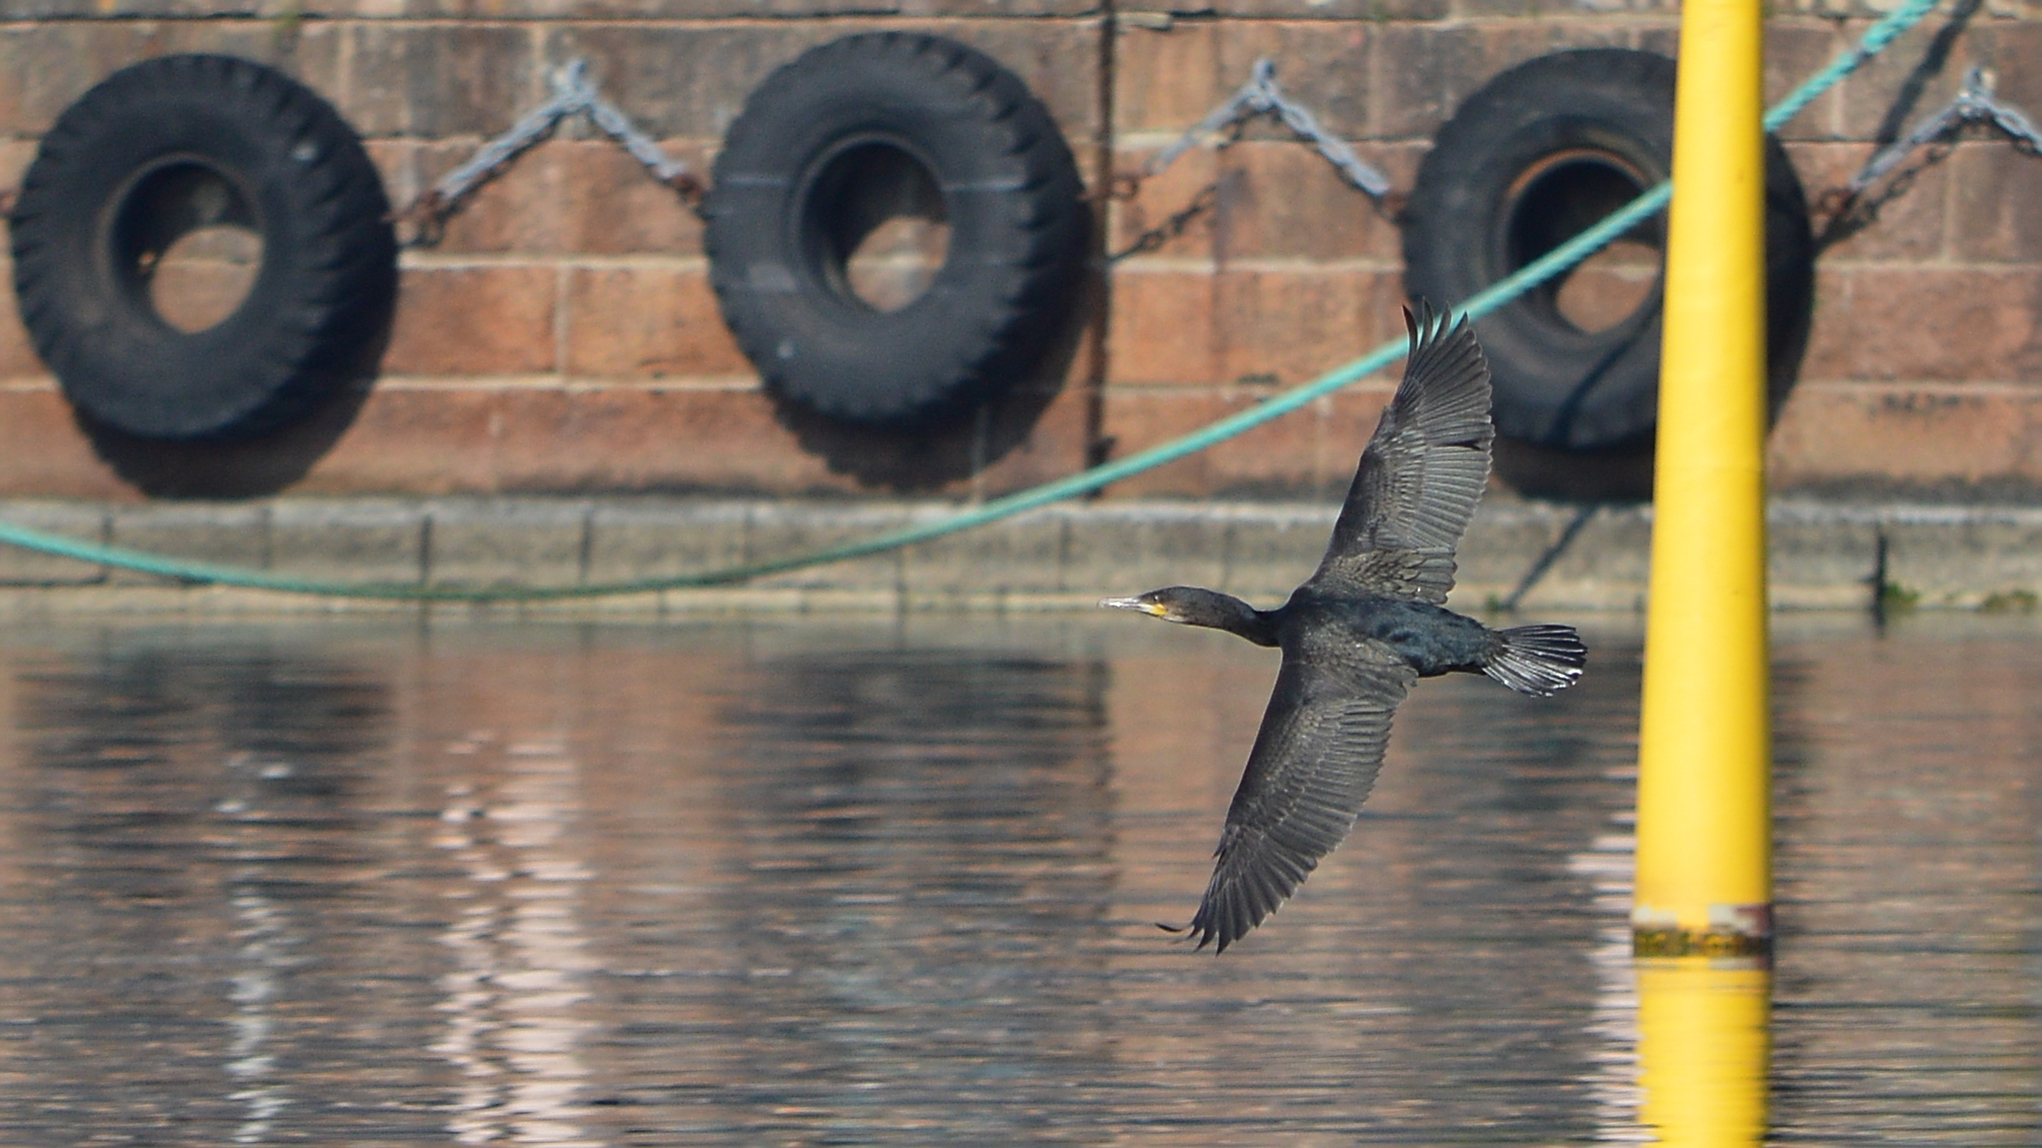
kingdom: Animalia
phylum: Chordata
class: Aves
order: Suliformes
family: Phalacrocoracidae
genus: Phalacrocorax
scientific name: Phalacrocorax carbo
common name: Great cormorant
